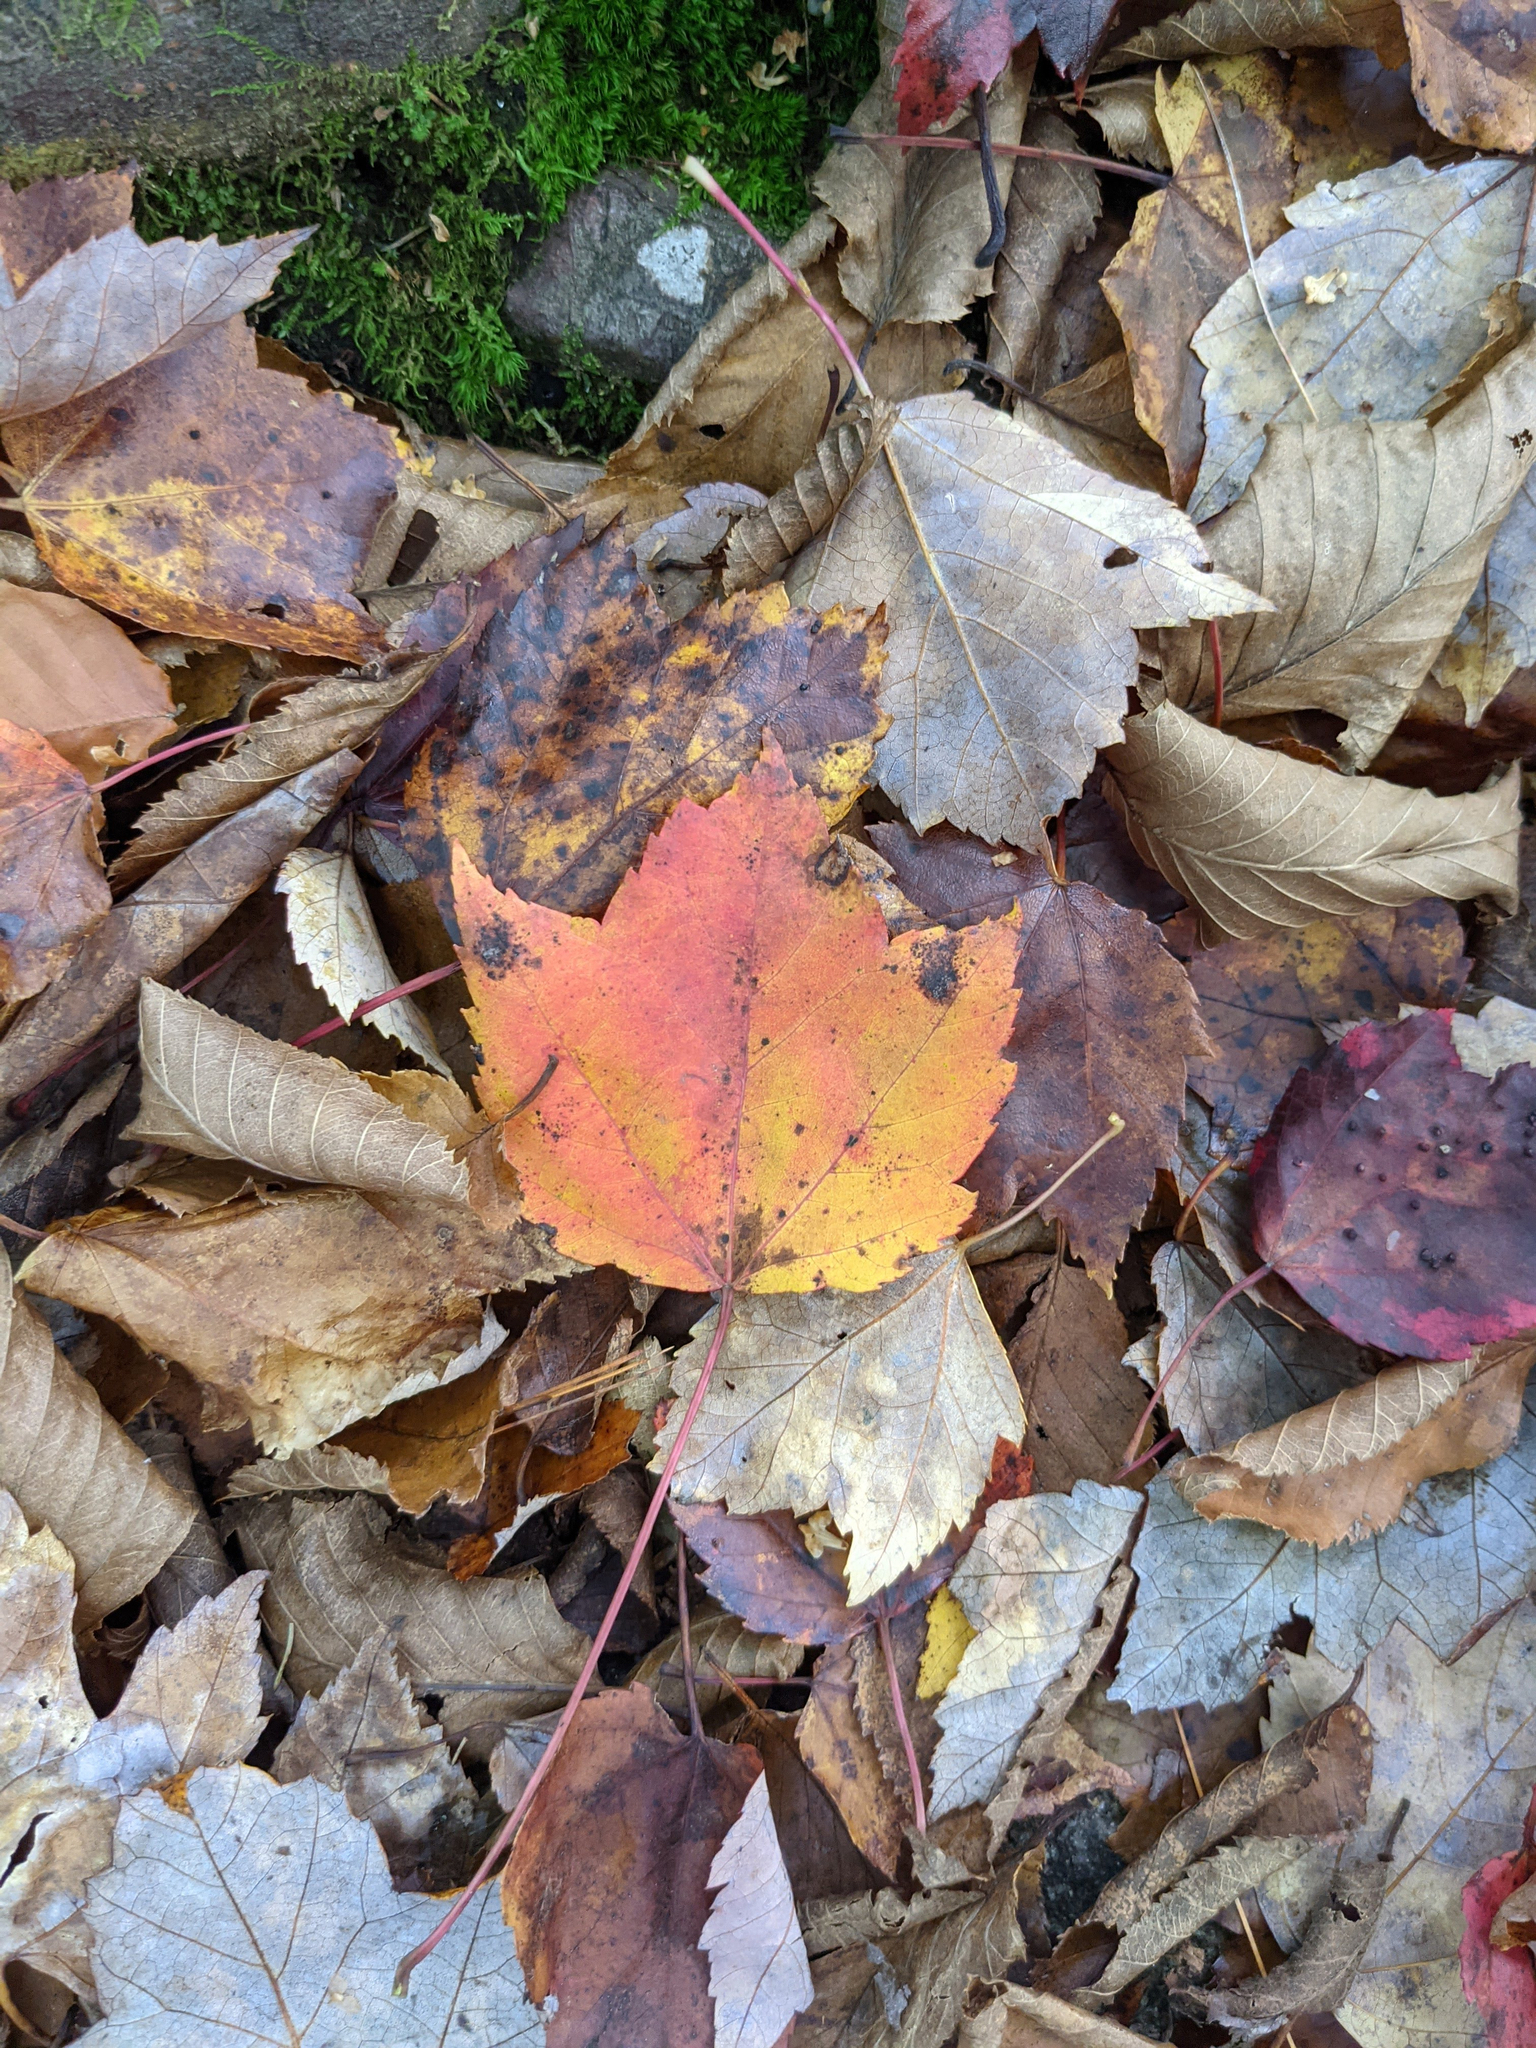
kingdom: Plantae
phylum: Tracheophyta
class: Magnoliopsida
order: Sapindales
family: Sapindaceae
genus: Acer
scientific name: Acer rubrum
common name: Red maple
